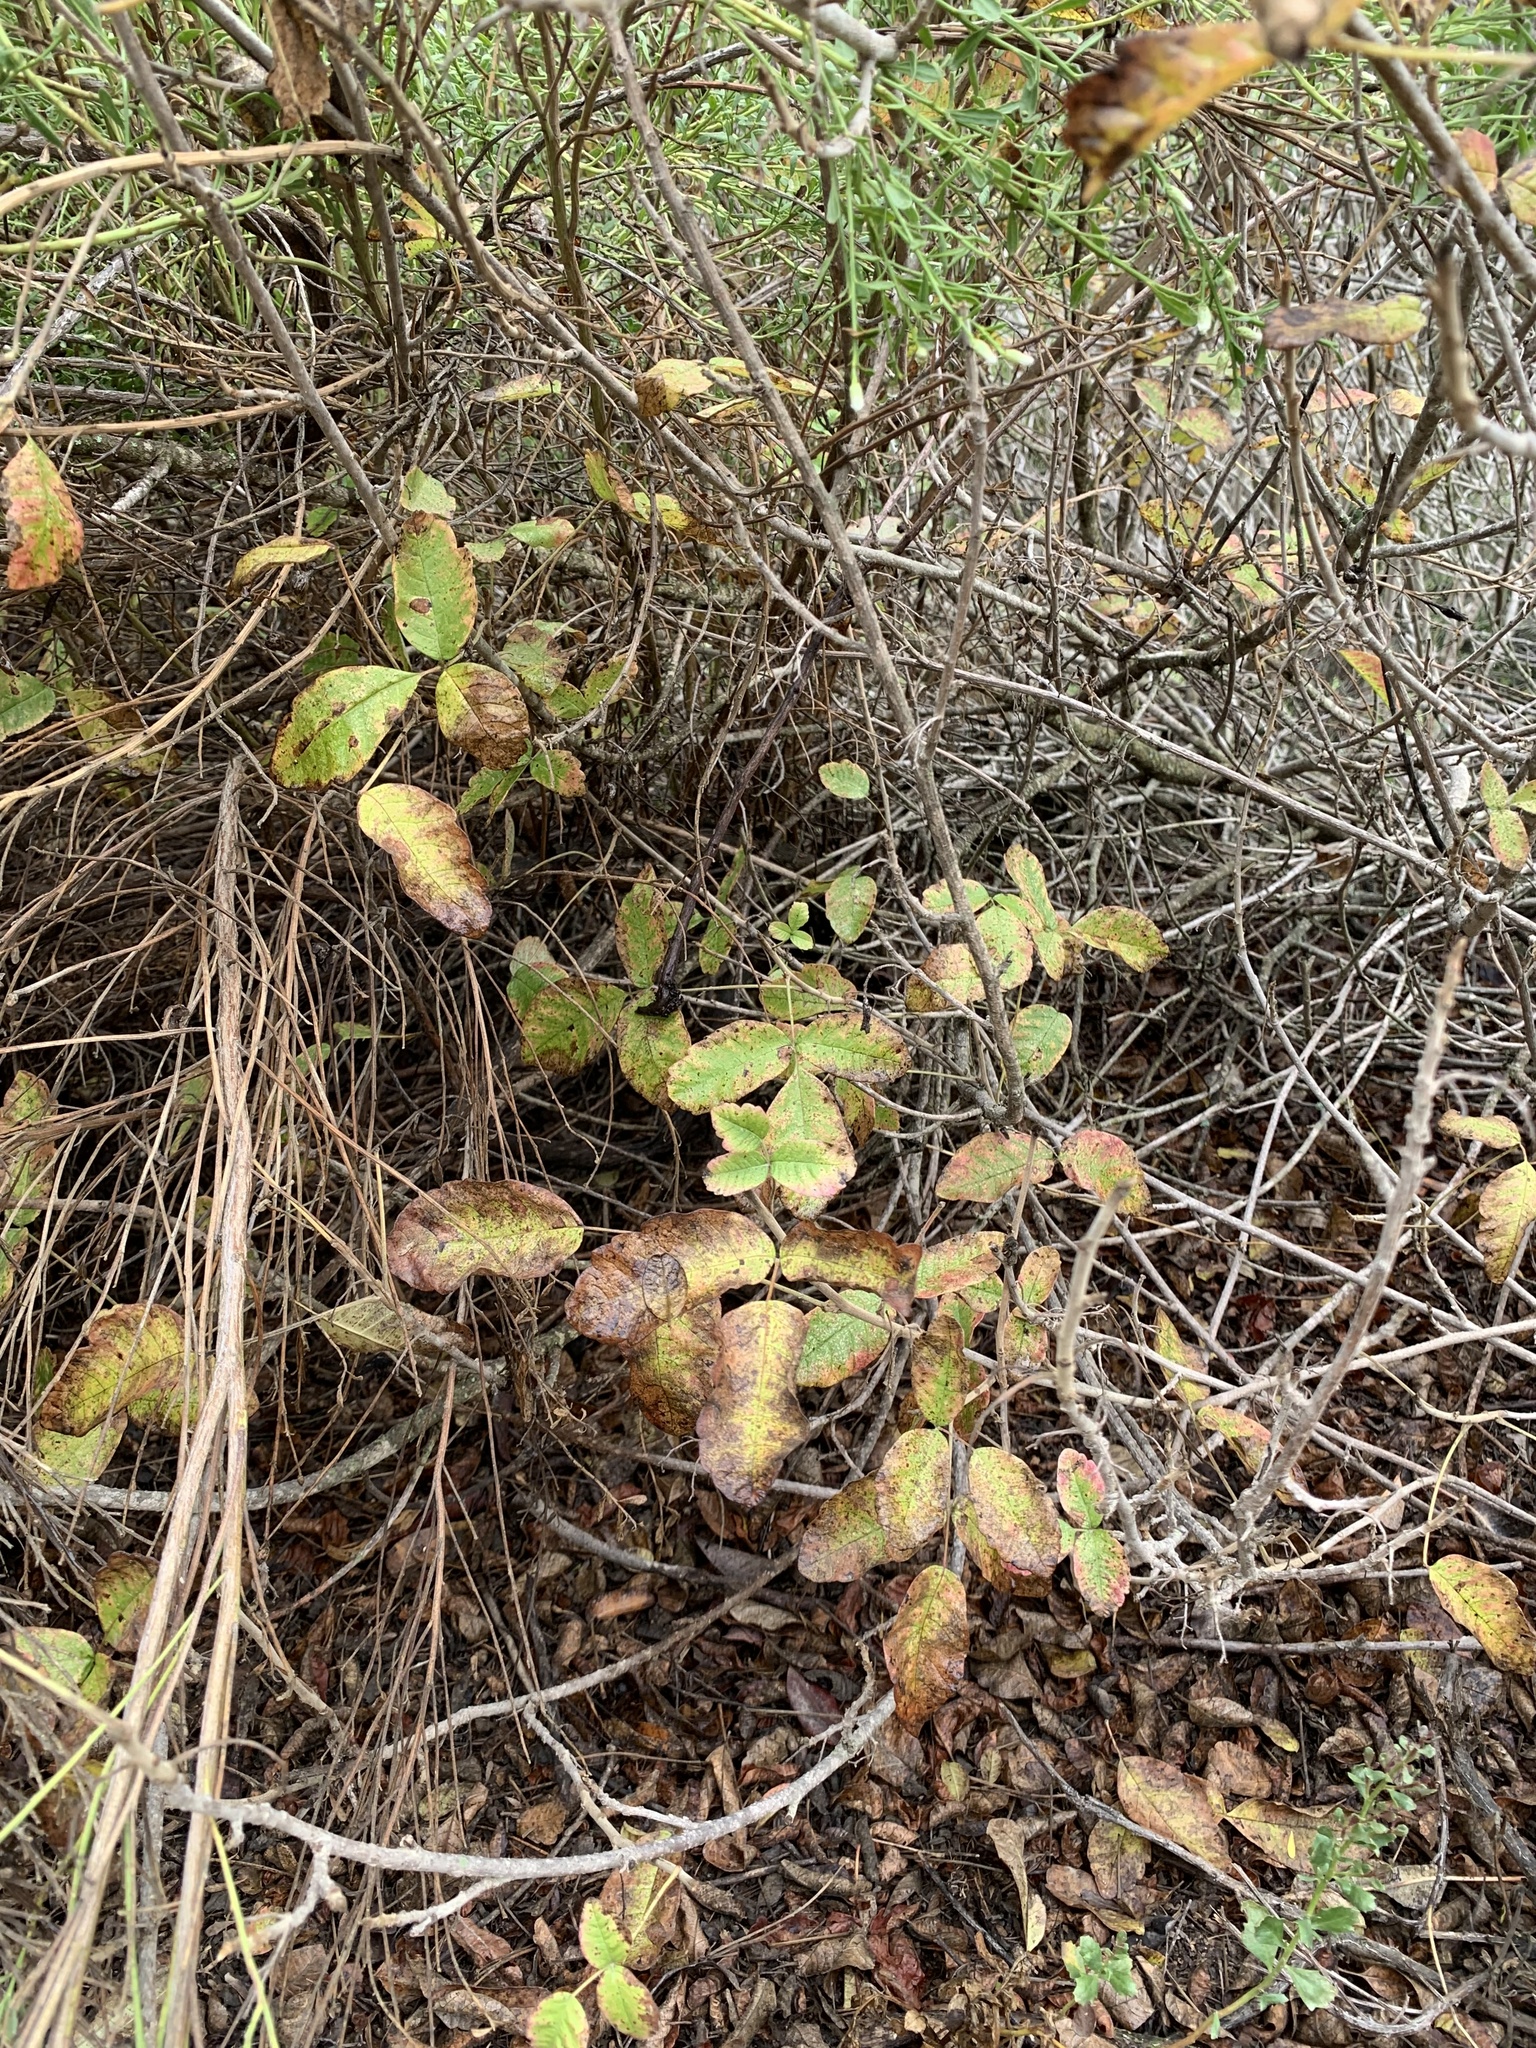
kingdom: Plantae
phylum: Tracheophyta
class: Magnoliopsida
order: Sapindales
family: Anacardiaceae
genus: Toxicodendron
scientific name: Toxicodendron diversilobum
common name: Pacific poison-oak
